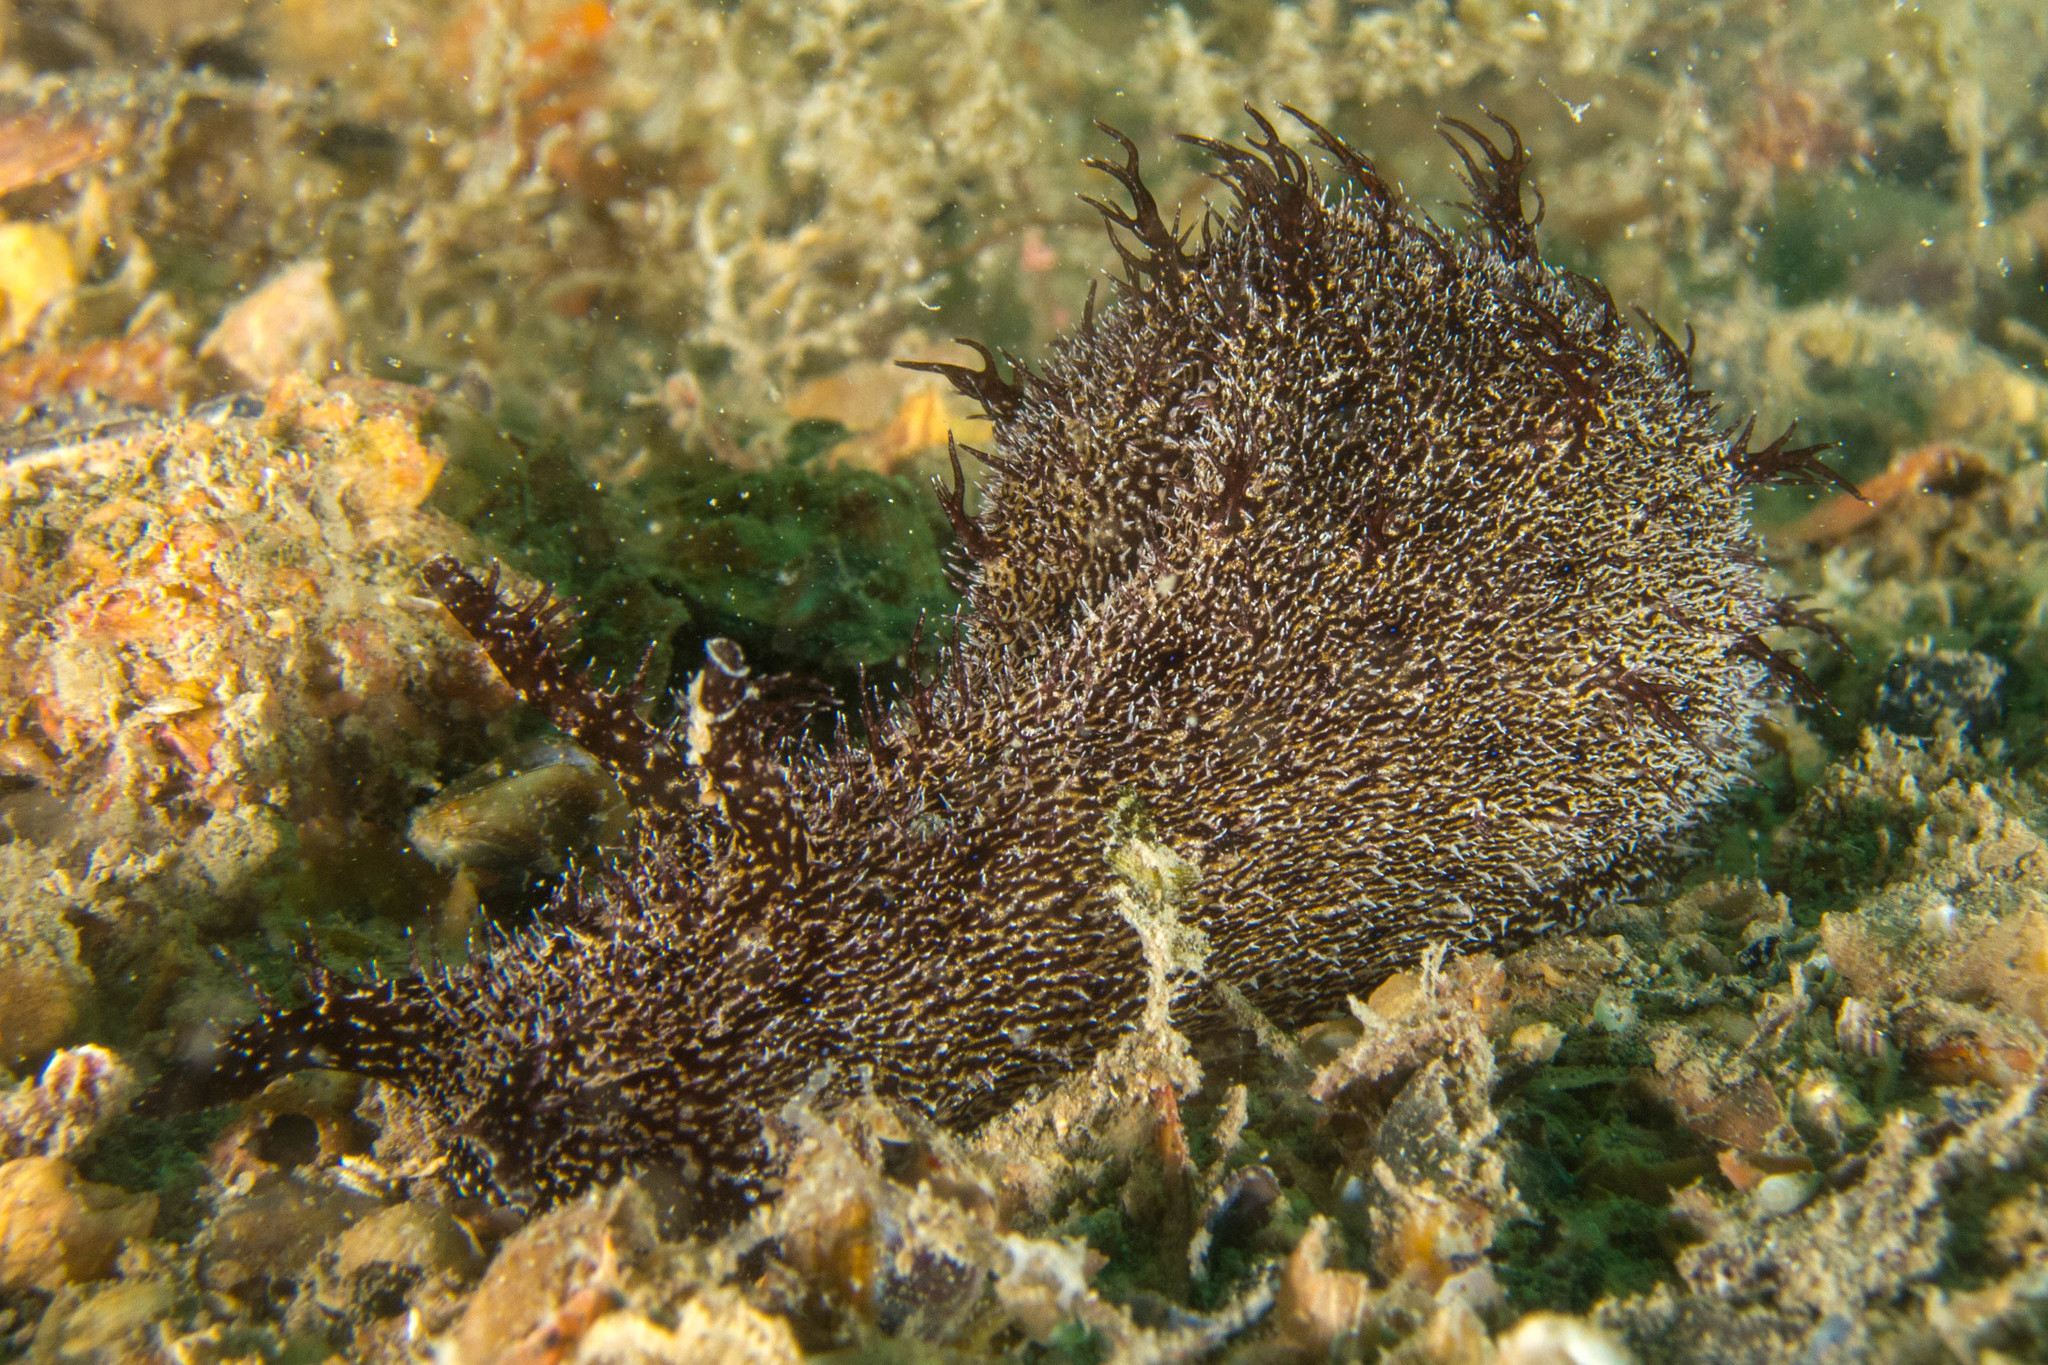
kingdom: Animalia
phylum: Mollusca
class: Gastropoda
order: Aplysiida
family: Aplysiidae
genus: Bursatella
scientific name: Bursatella hirsuta
